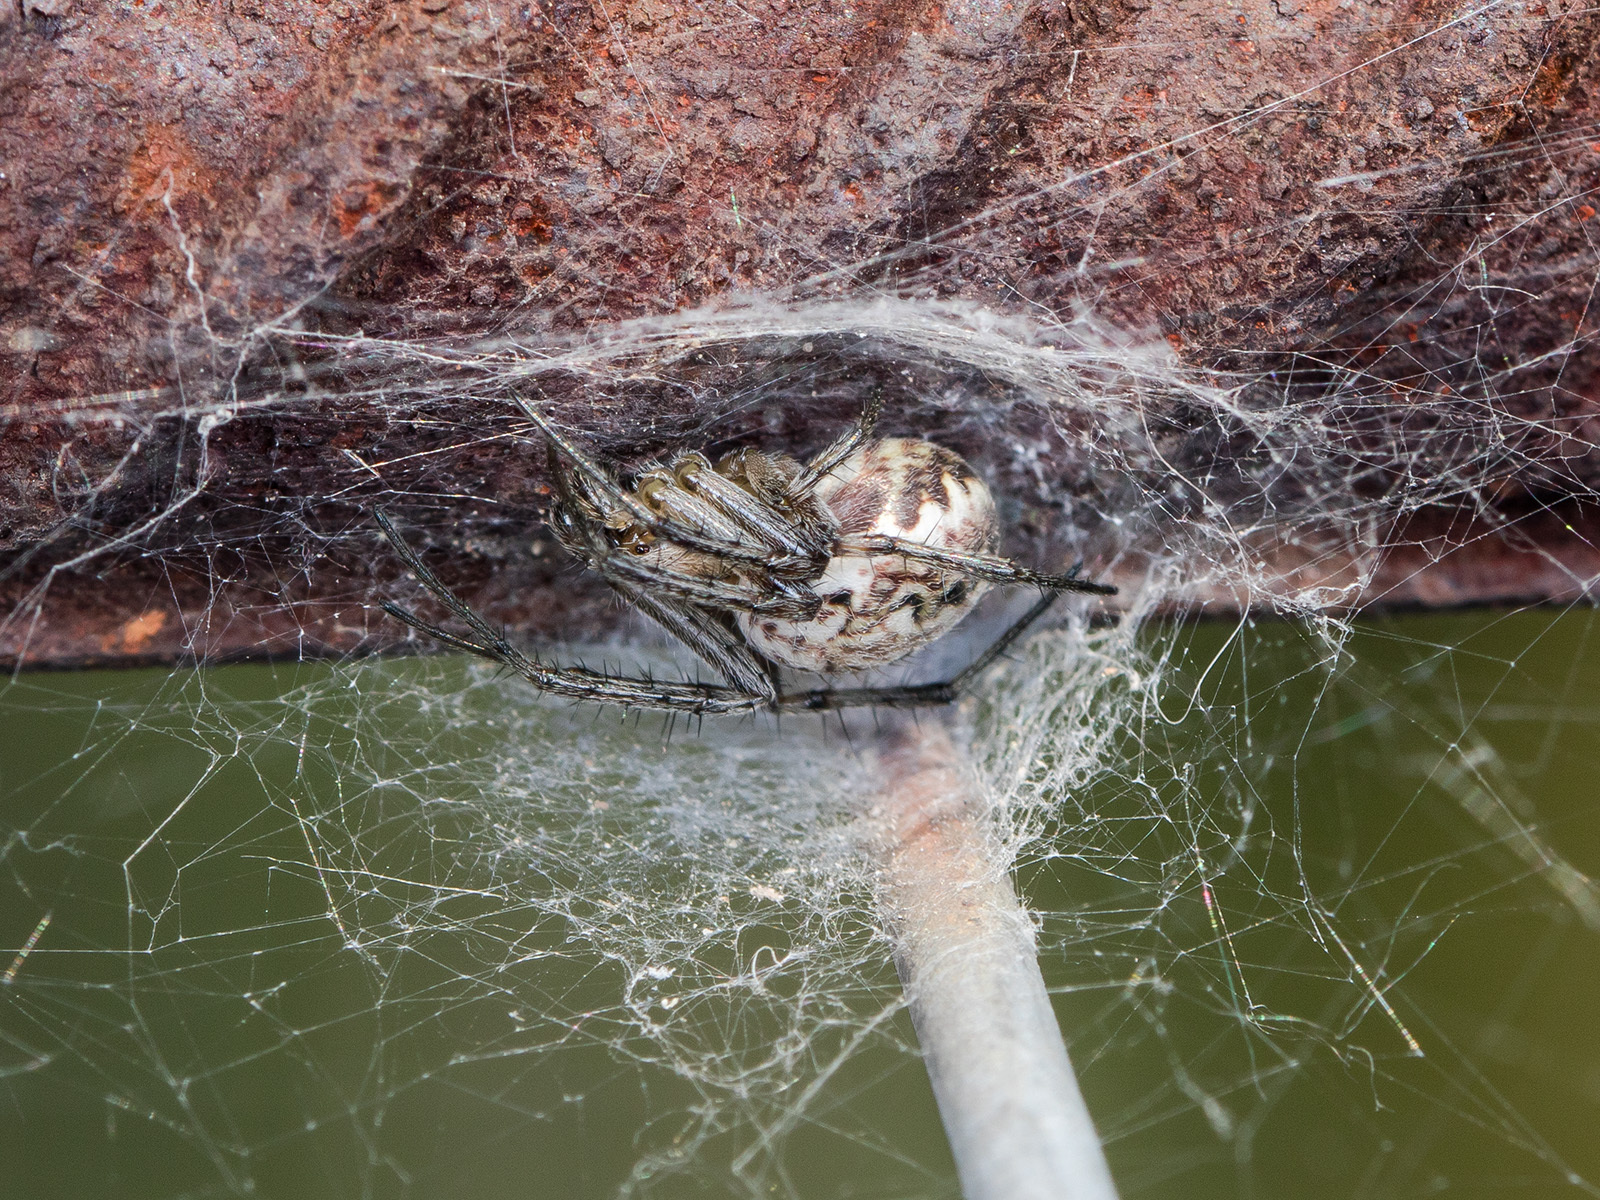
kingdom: Animalia
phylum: Arthropoda
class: Arachnida
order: Araneae
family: Araneidae
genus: Neoscona
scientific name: Neoscona adianta
